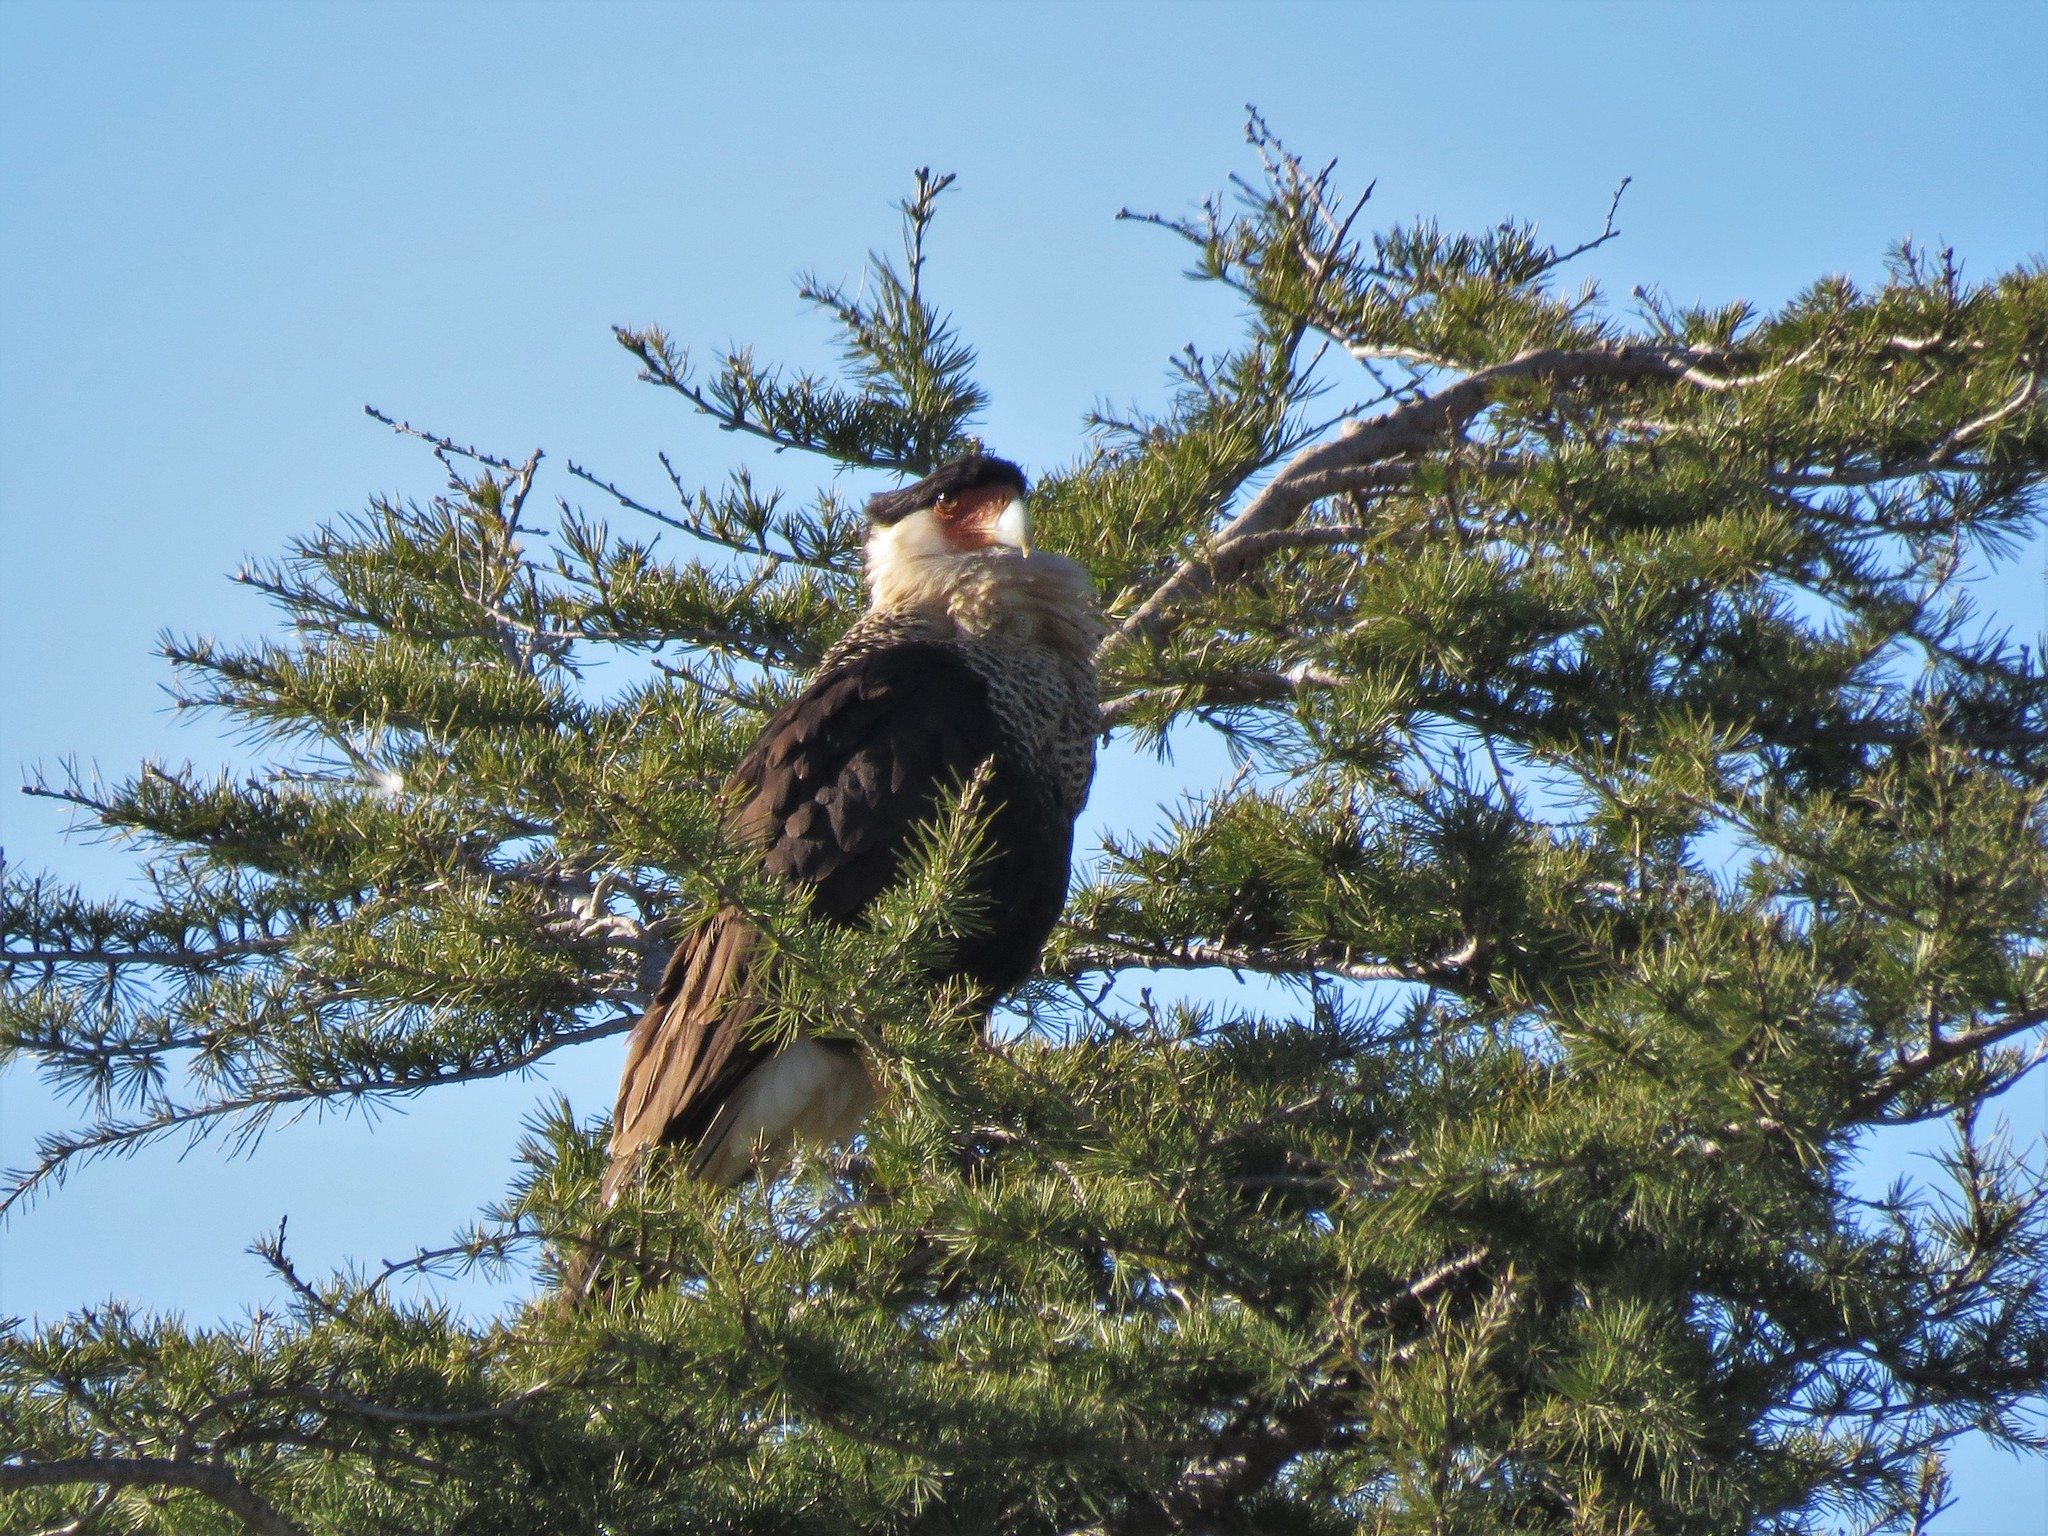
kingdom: Animalia
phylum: Chordata
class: Aves
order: Falconiformes
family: Falconidae
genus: Caracara
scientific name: Caracara plancus
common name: Southern caracara
